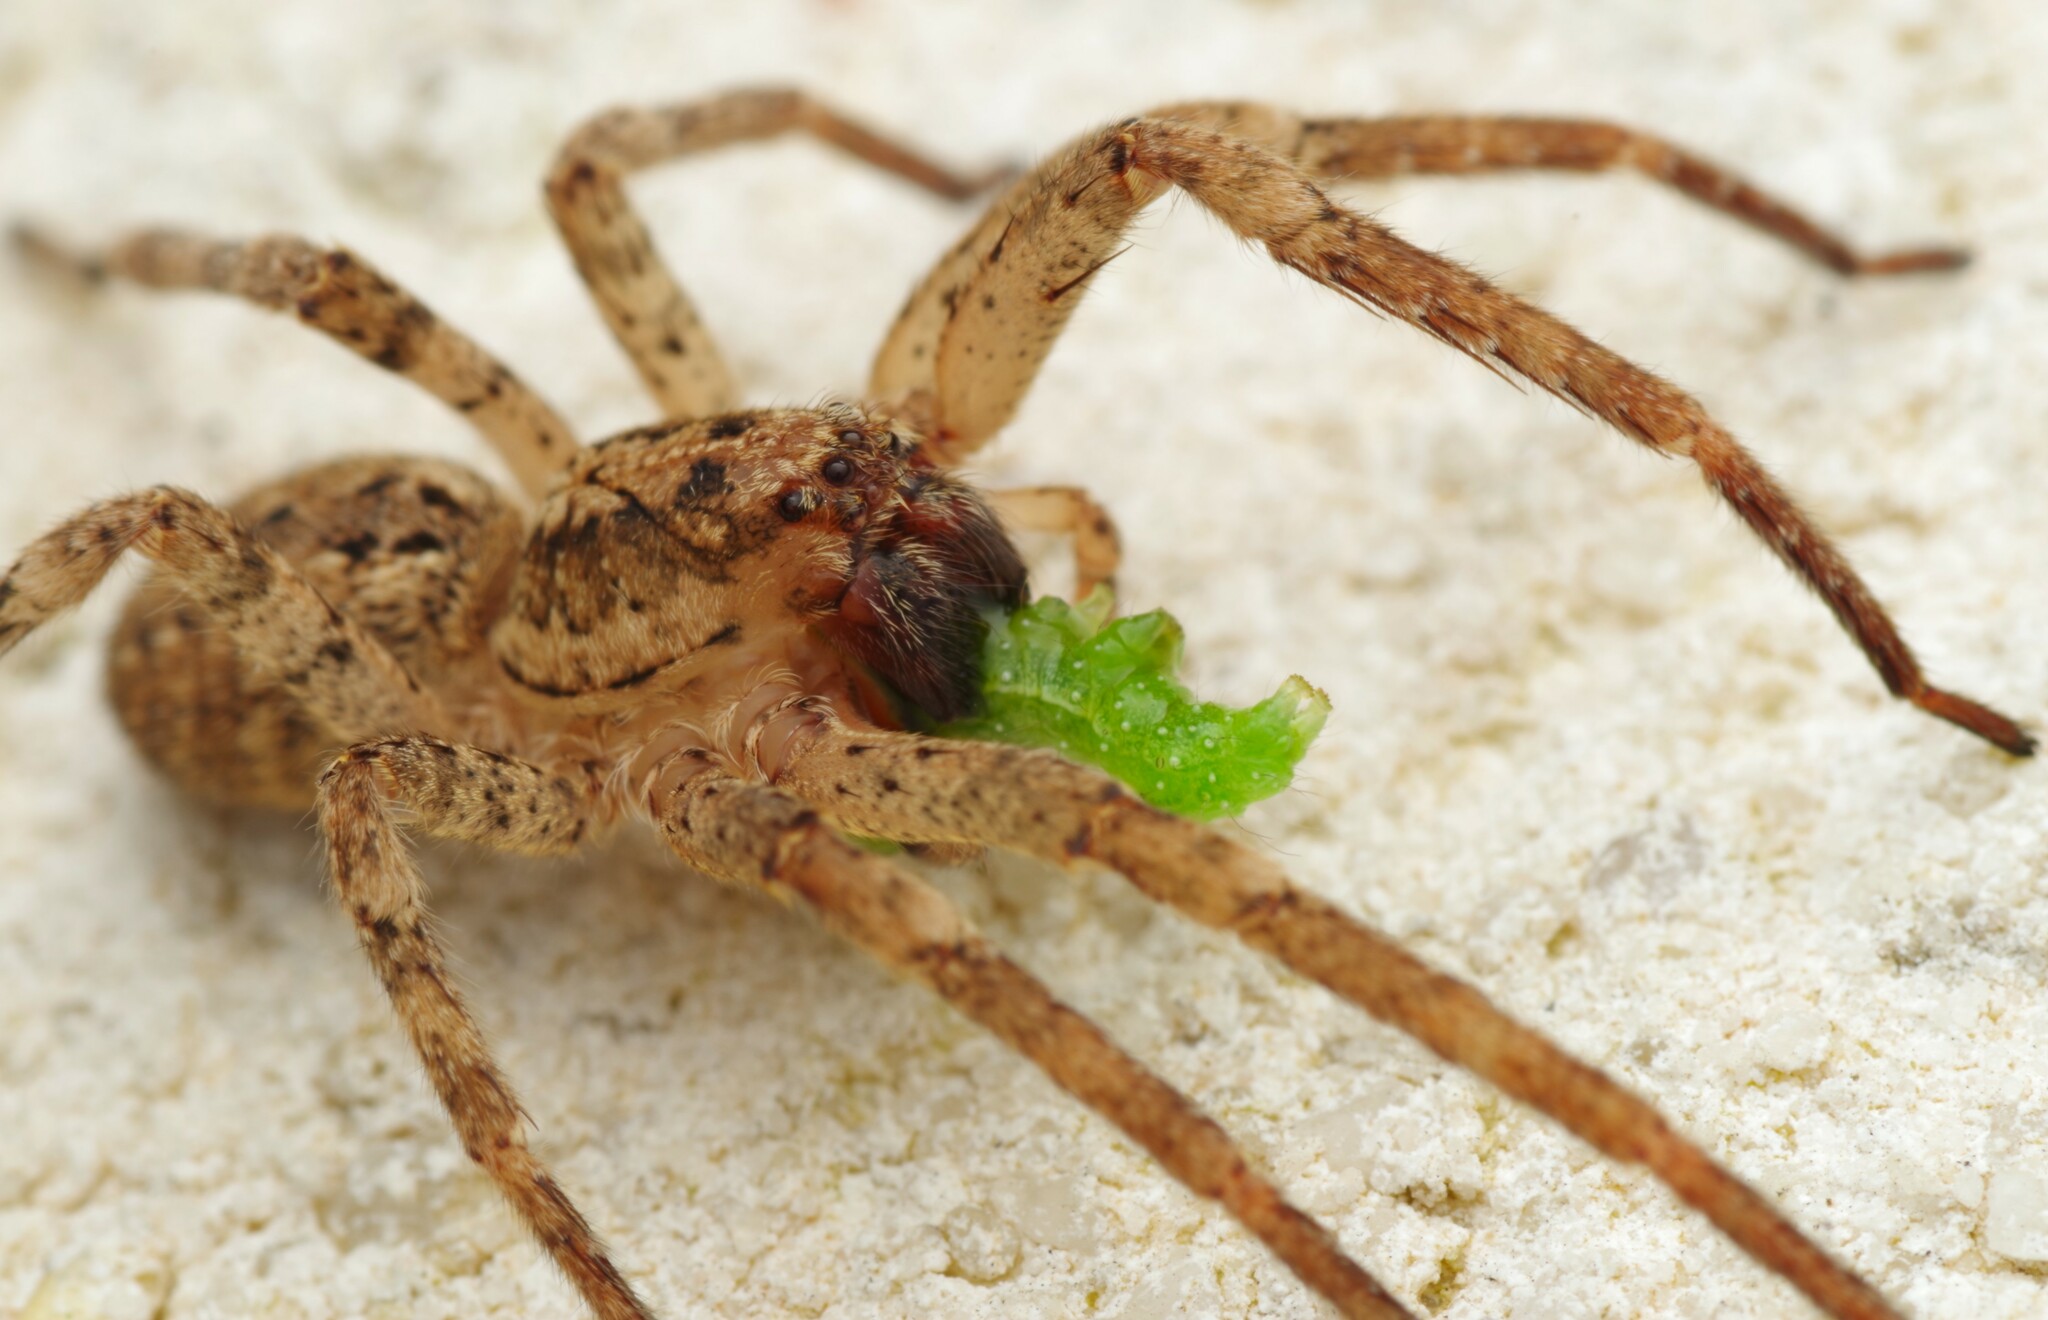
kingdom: Animalia
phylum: Arthropoda
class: Arachnida
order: Araneae
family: Zoropsidae
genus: Zoropsis
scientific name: Zoropsis spinimana
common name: Zoropsid spider
